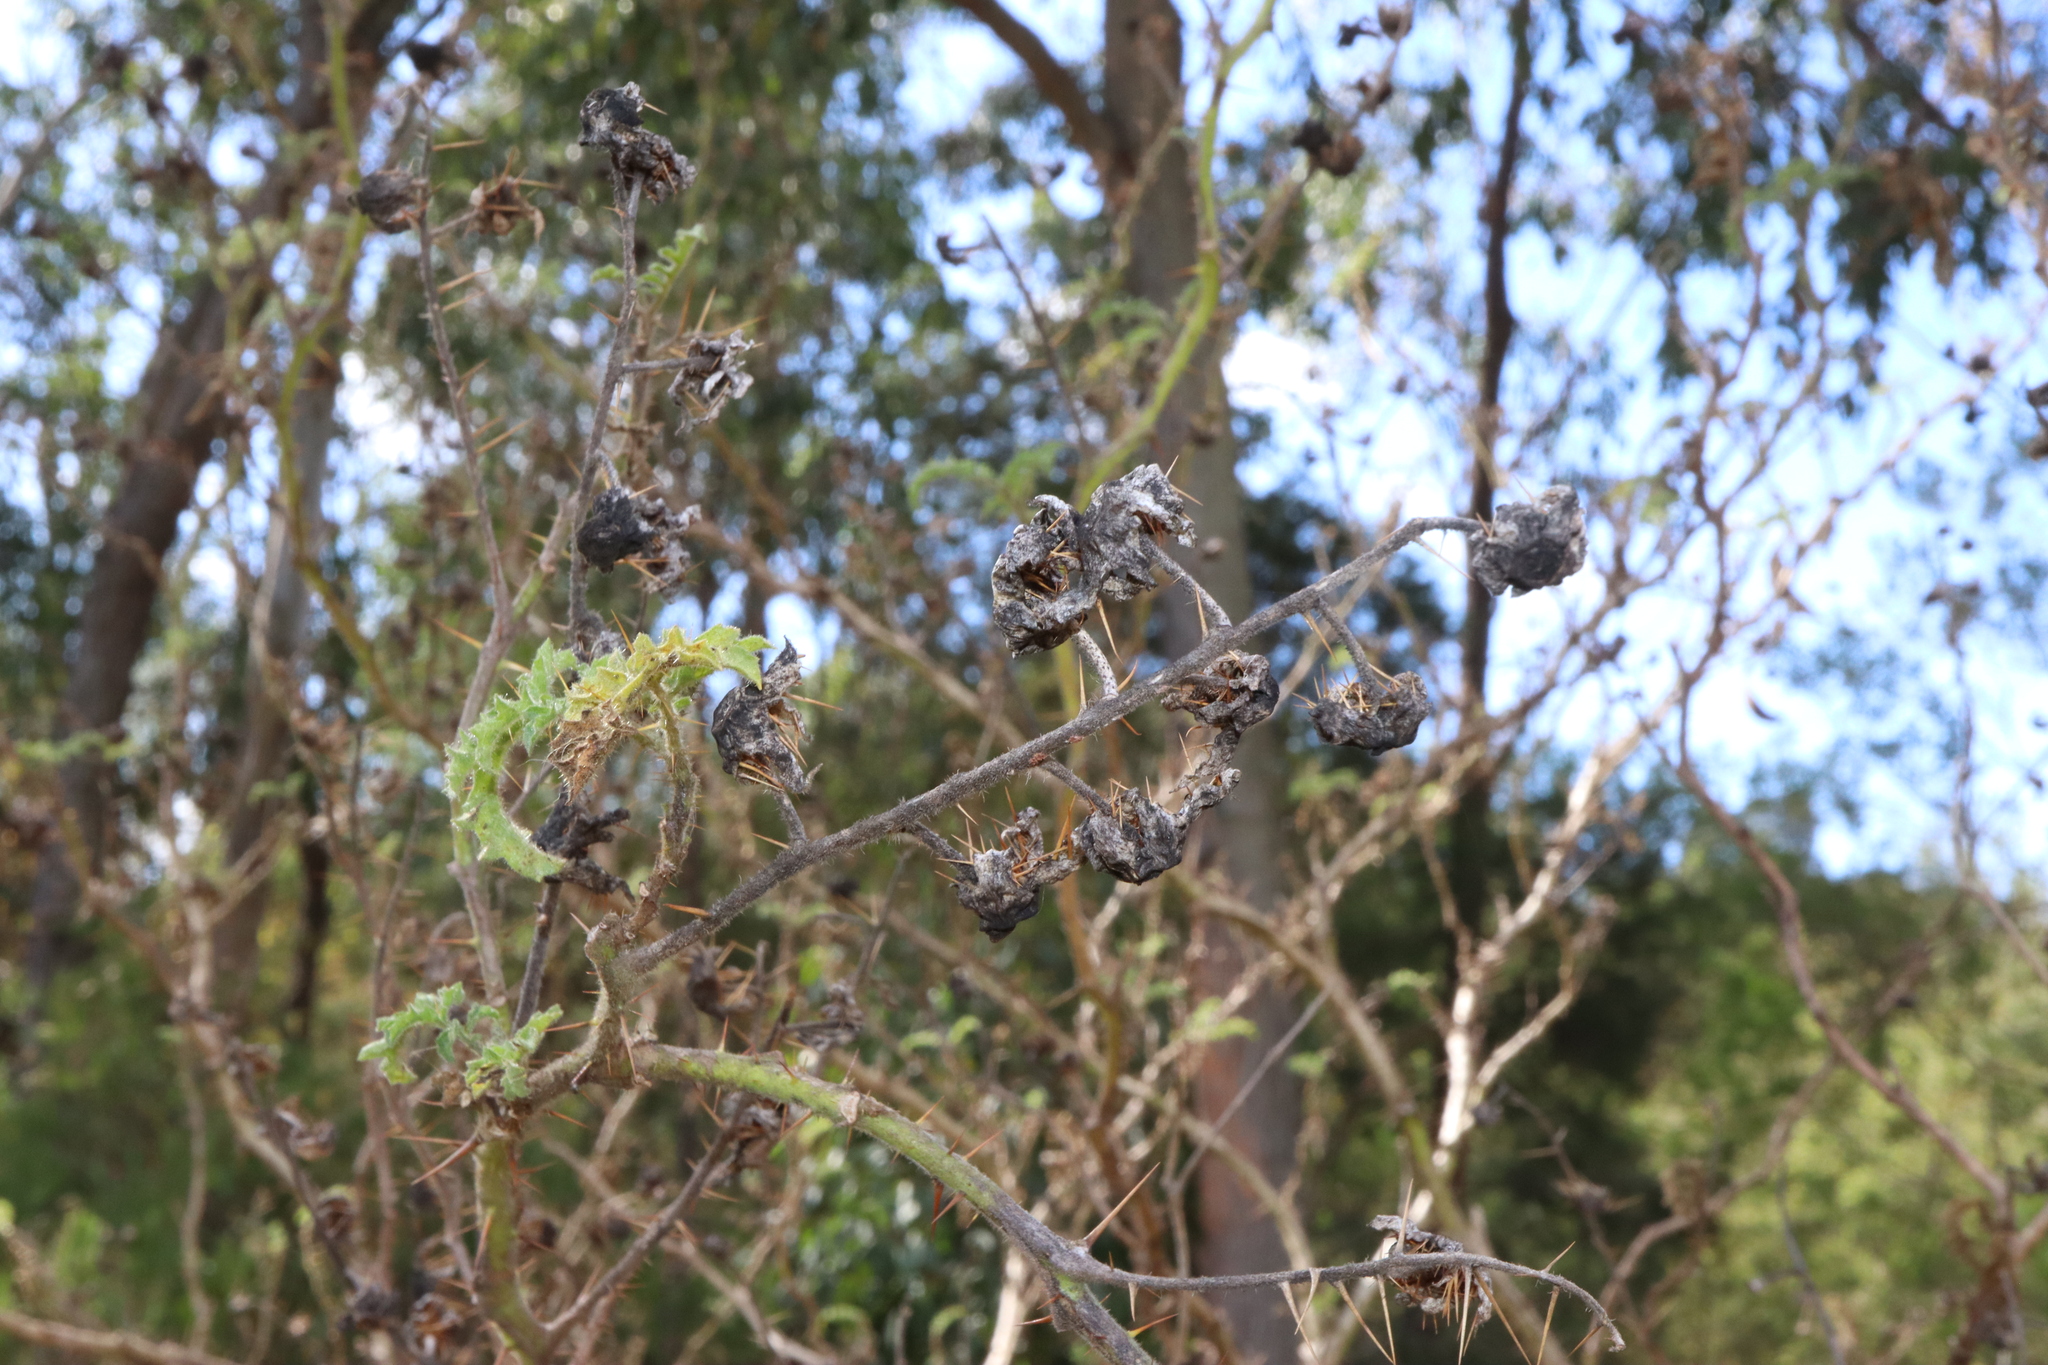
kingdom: Plantae
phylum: Tracheophyta
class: Magnoliopsida
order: Solanales
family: Solanaceae
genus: Solanum
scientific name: Solanum sisymbriifolium
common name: Red buffalo-bur
